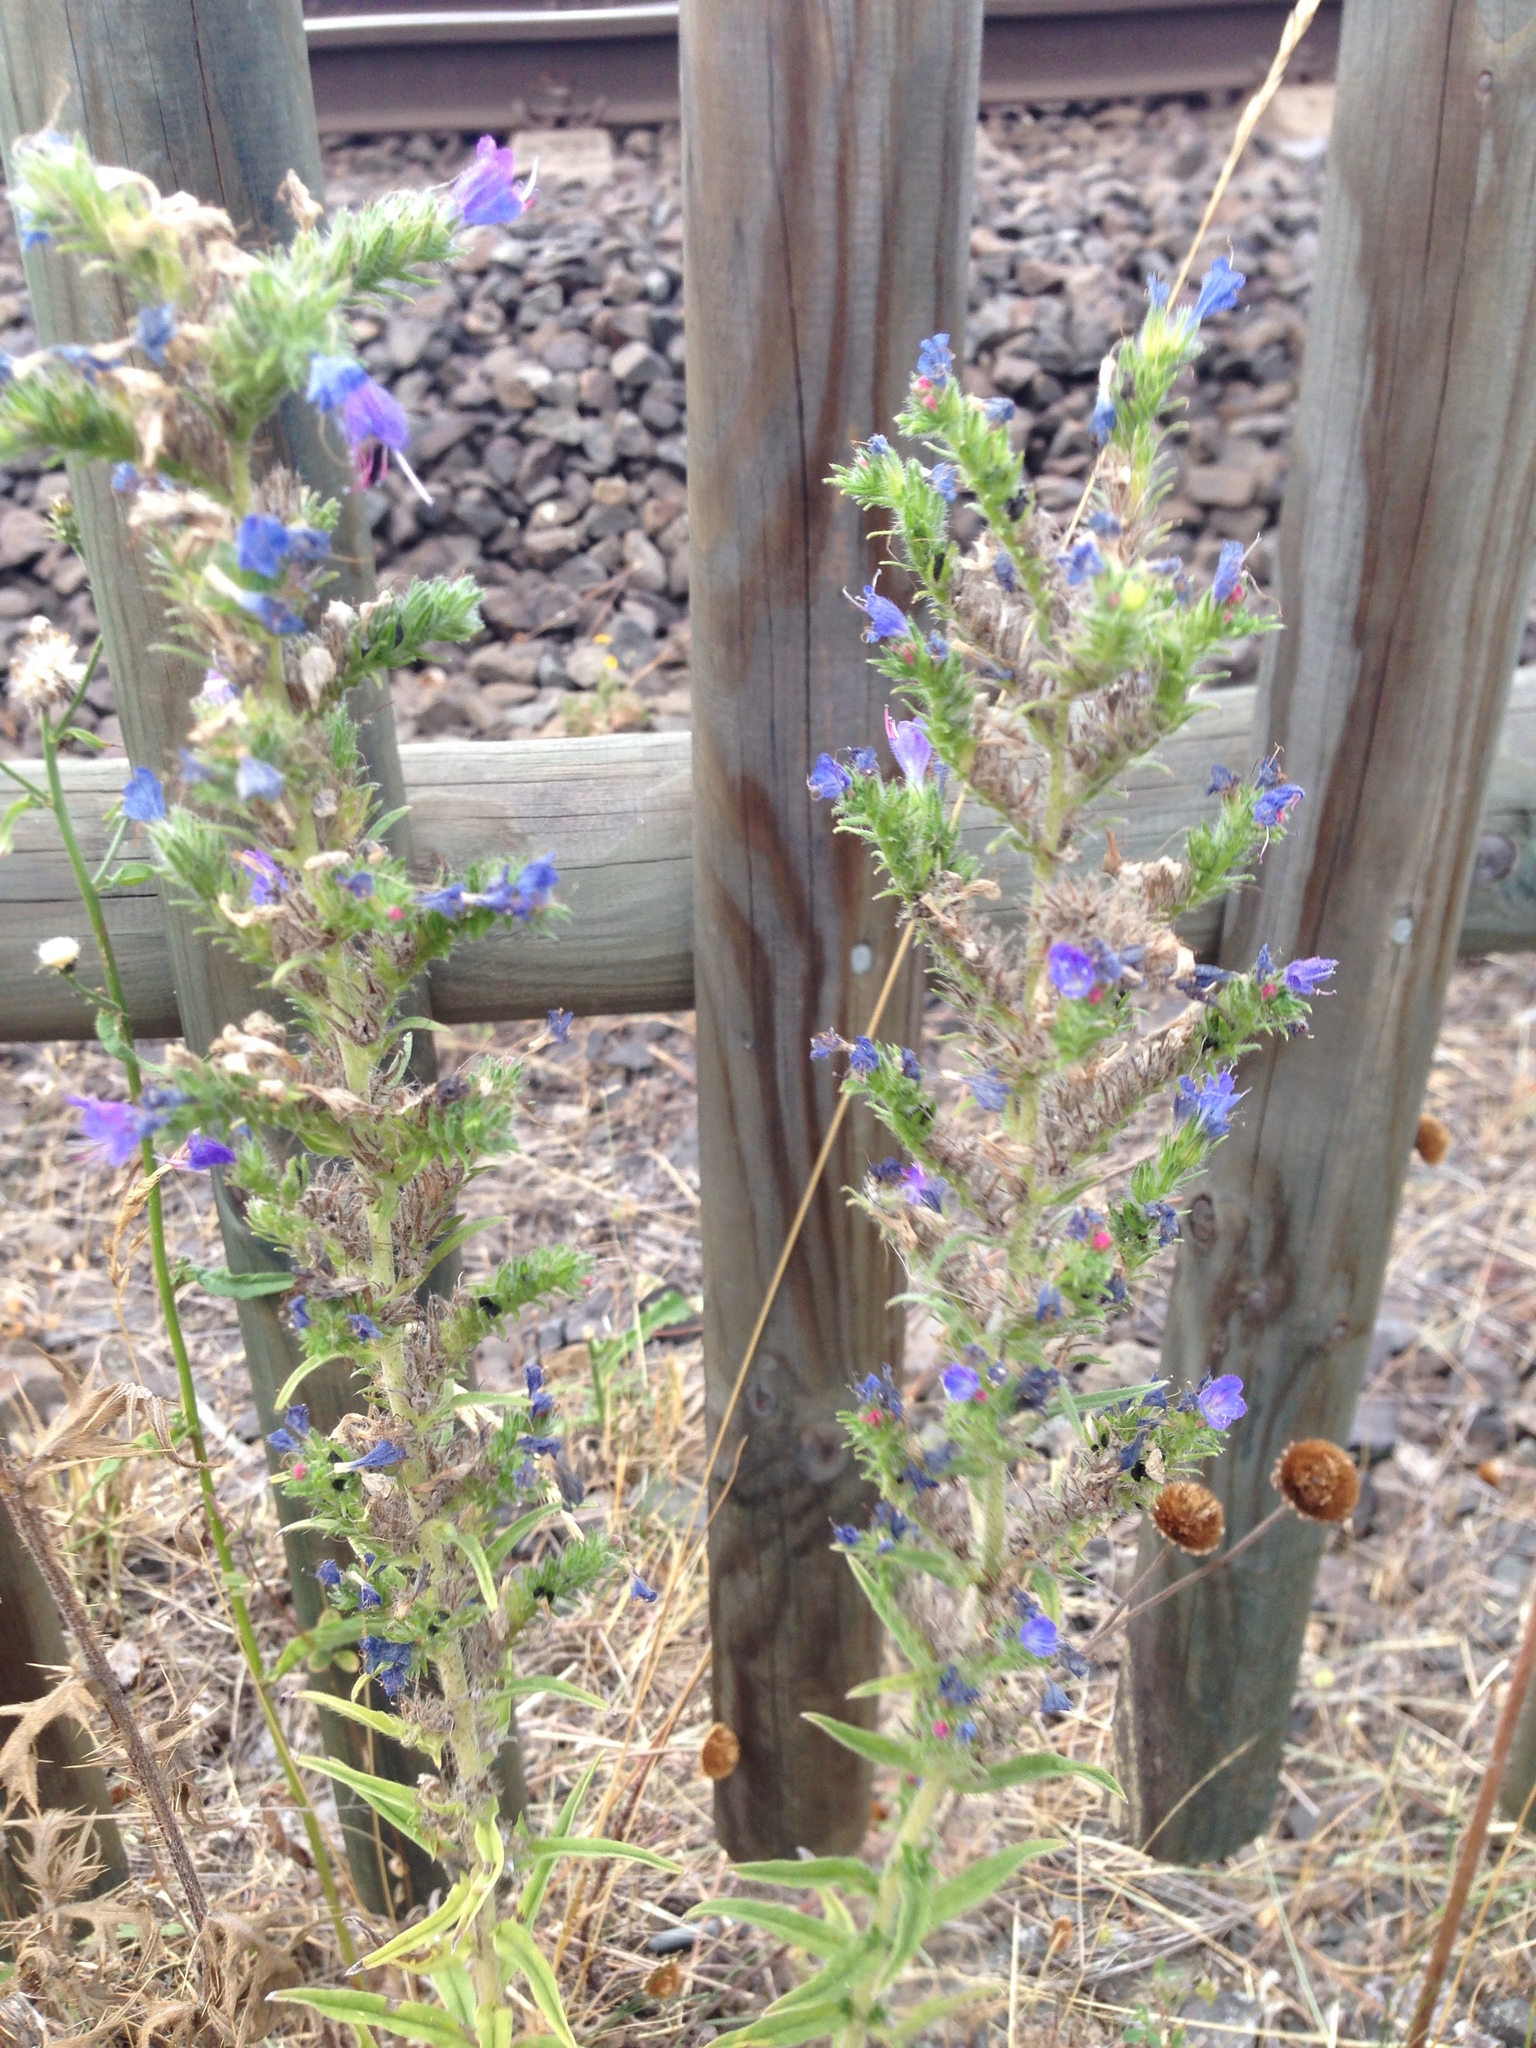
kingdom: Plantae
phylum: Tracheophyta
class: Magnoliopsida
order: Boraginales
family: Boraginaceae
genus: Echium
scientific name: Echium vulgare
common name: Common viper's bugloss
